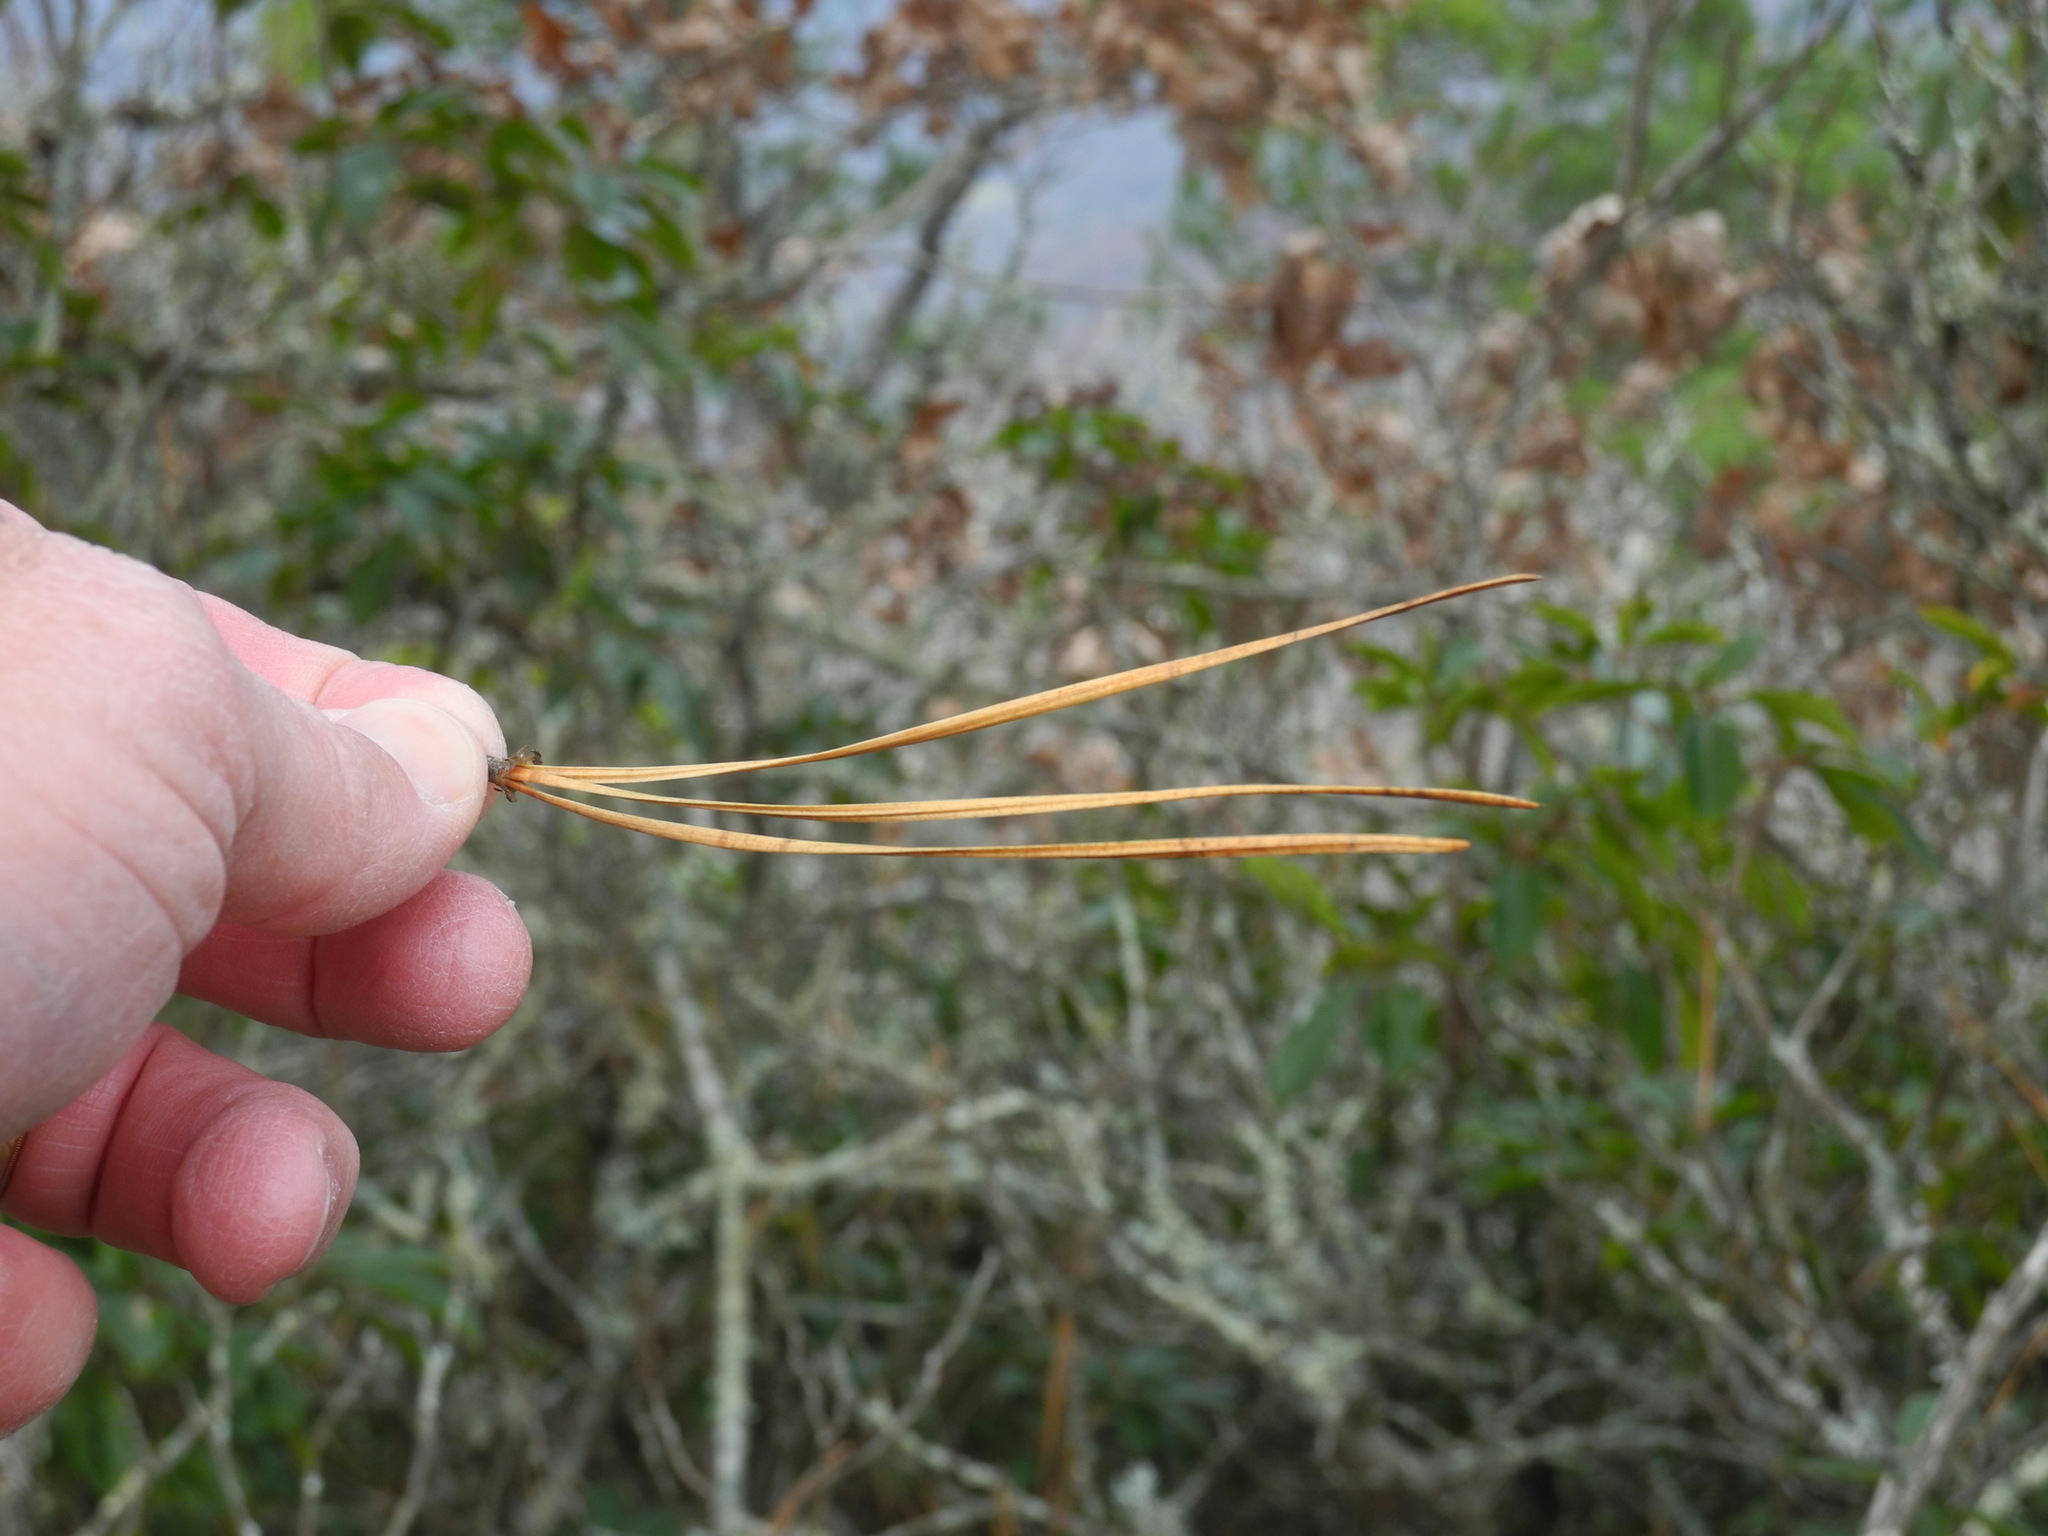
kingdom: Plantae
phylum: Tracheophyta
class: Pinopsida
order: Pinales
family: Pinaceae
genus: Pinus
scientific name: Pinus rigida
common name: Pitch pine
